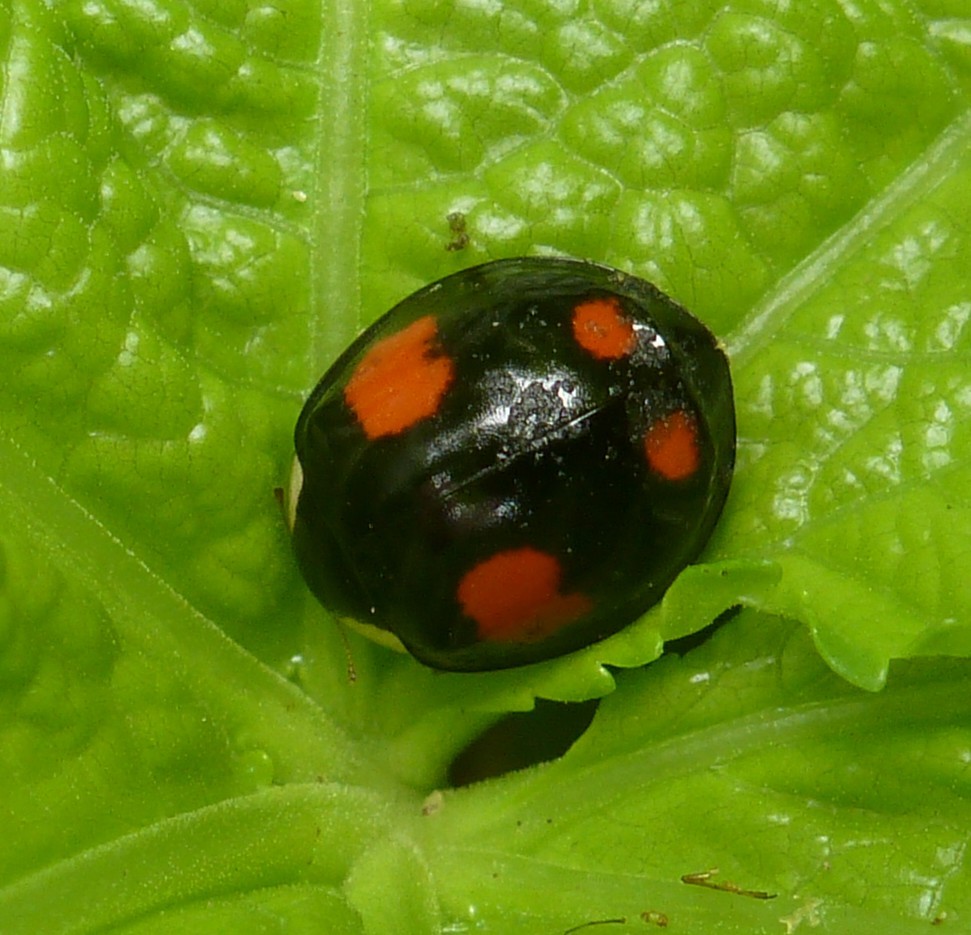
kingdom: Animalia
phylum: Arthropoda
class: Insecta
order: Coleoptera
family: Coccinellidae
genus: Harmonia
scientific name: Harmonia axyridis
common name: Harlequin ladybird
